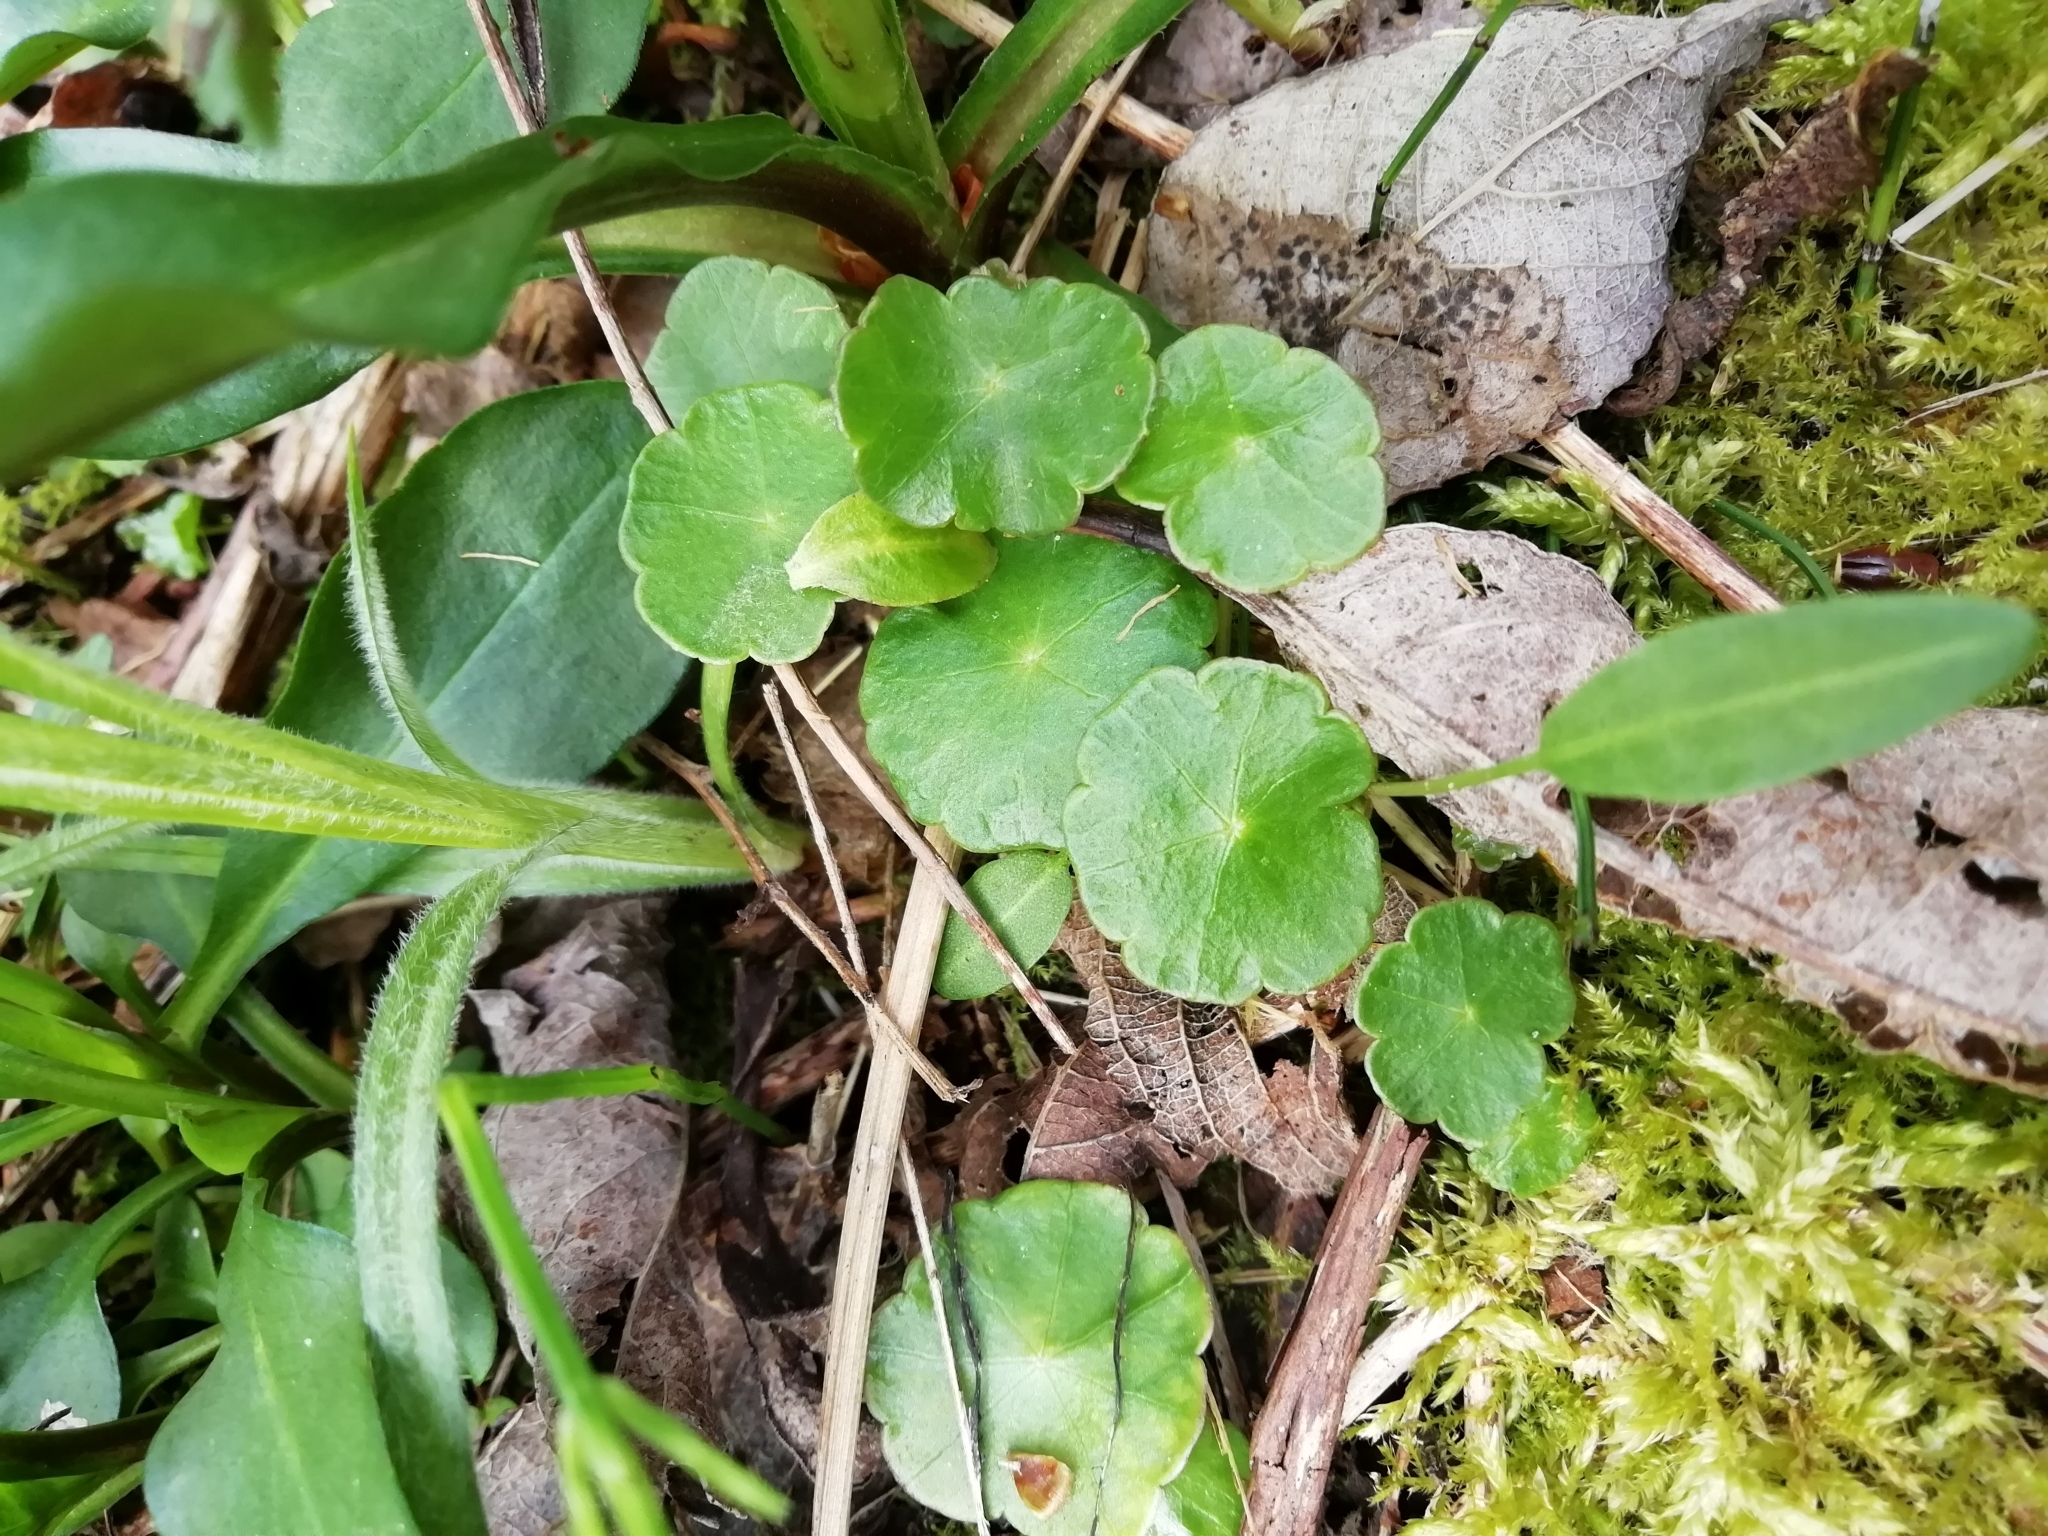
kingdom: Plantae
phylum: Tracheophyta
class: Magnoliopsida
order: Apiales
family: Araliaceae
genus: Hydrocotyle
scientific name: Hydrocotyle vulgaris
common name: Marsh pennywort
